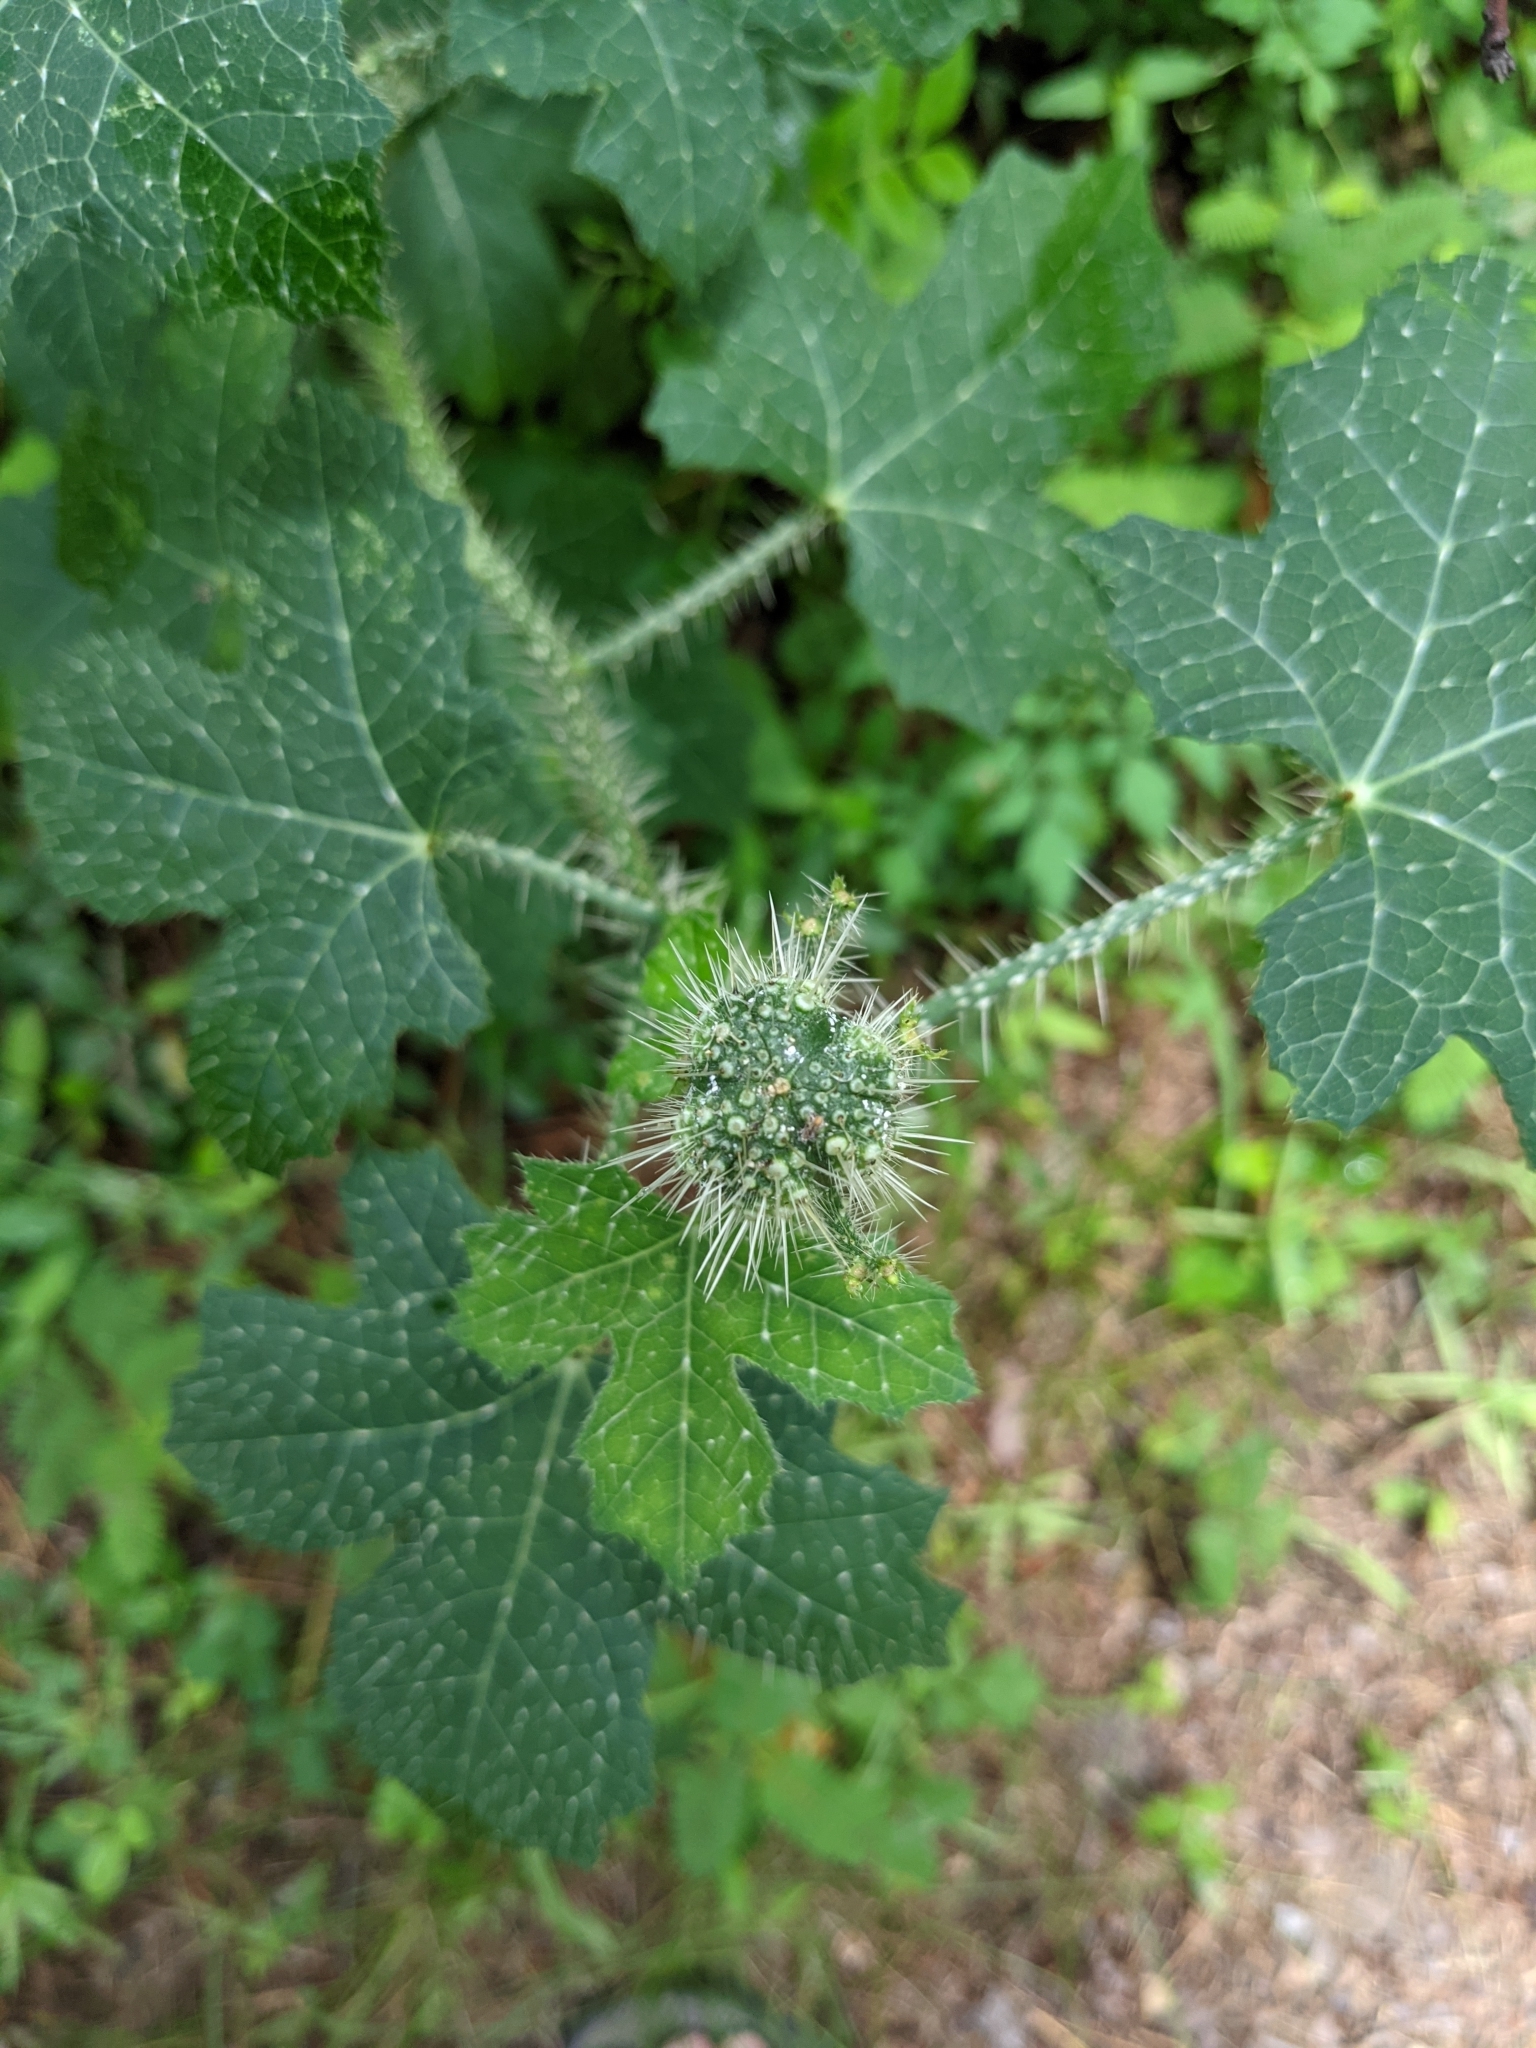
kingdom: Plantae
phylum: Tracheophyta
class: Magnoliopsida
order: Malpighiales
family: Euphorbiaceae
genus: Cnidoscolus
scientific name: Cnidoscolus texanus
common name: Texas bull-nettle
